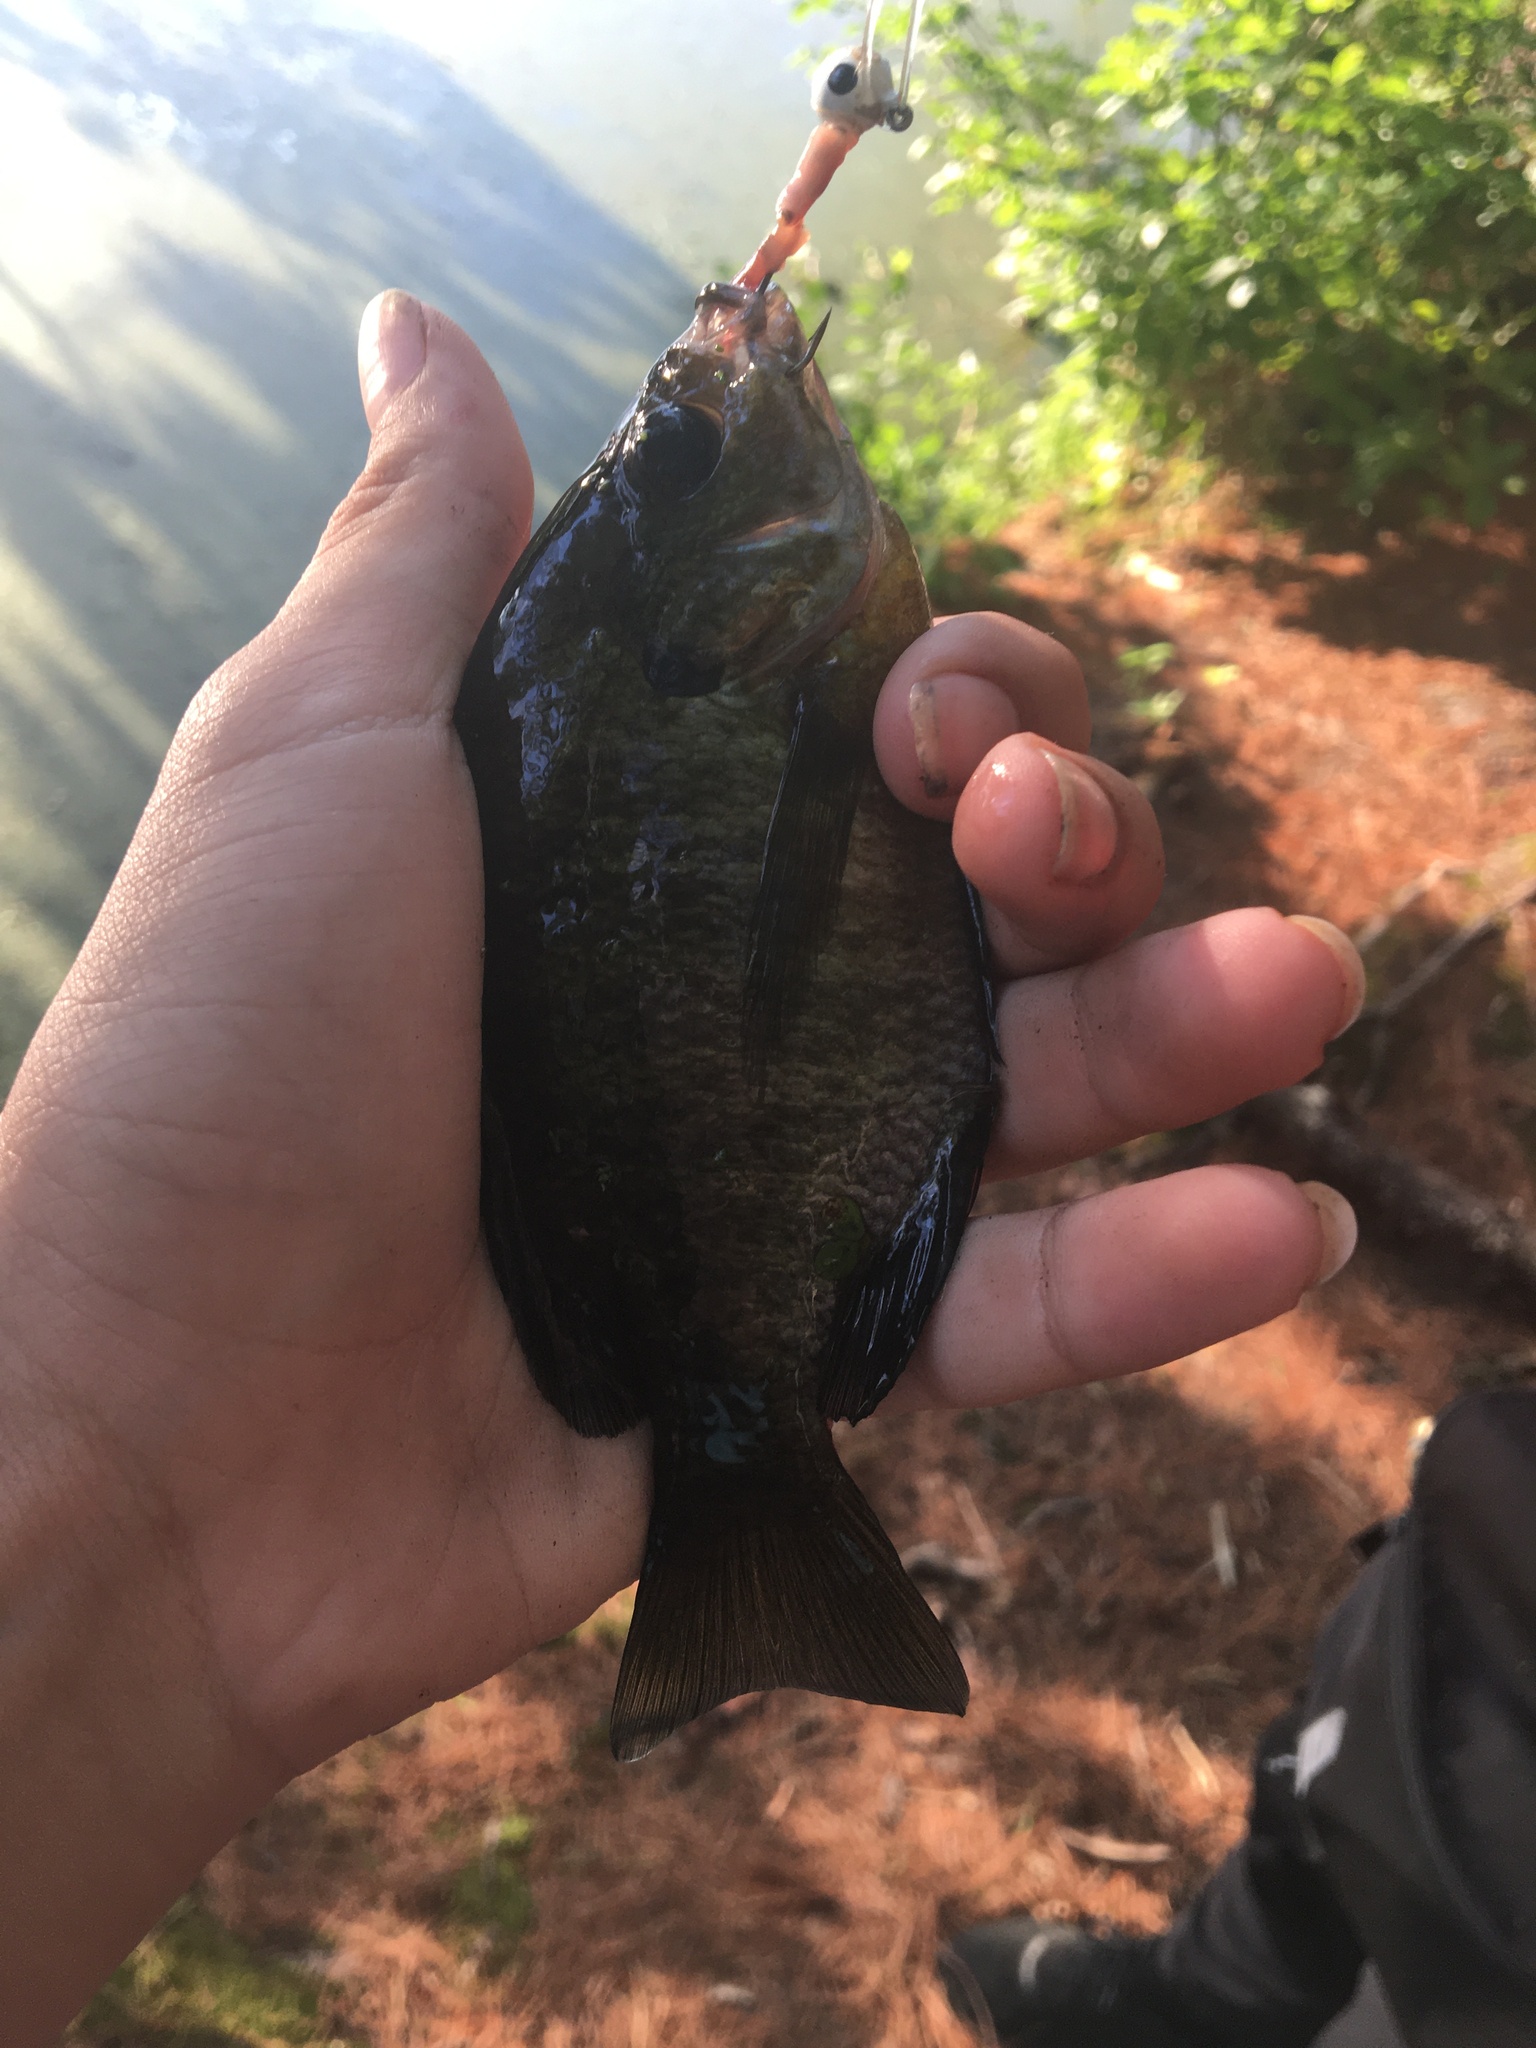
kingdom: Animalia
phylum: Chordata
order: Perciformes
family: Centrarchidae
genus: Lepomis
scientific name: Lepomis macrochirus
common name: Bluegill
